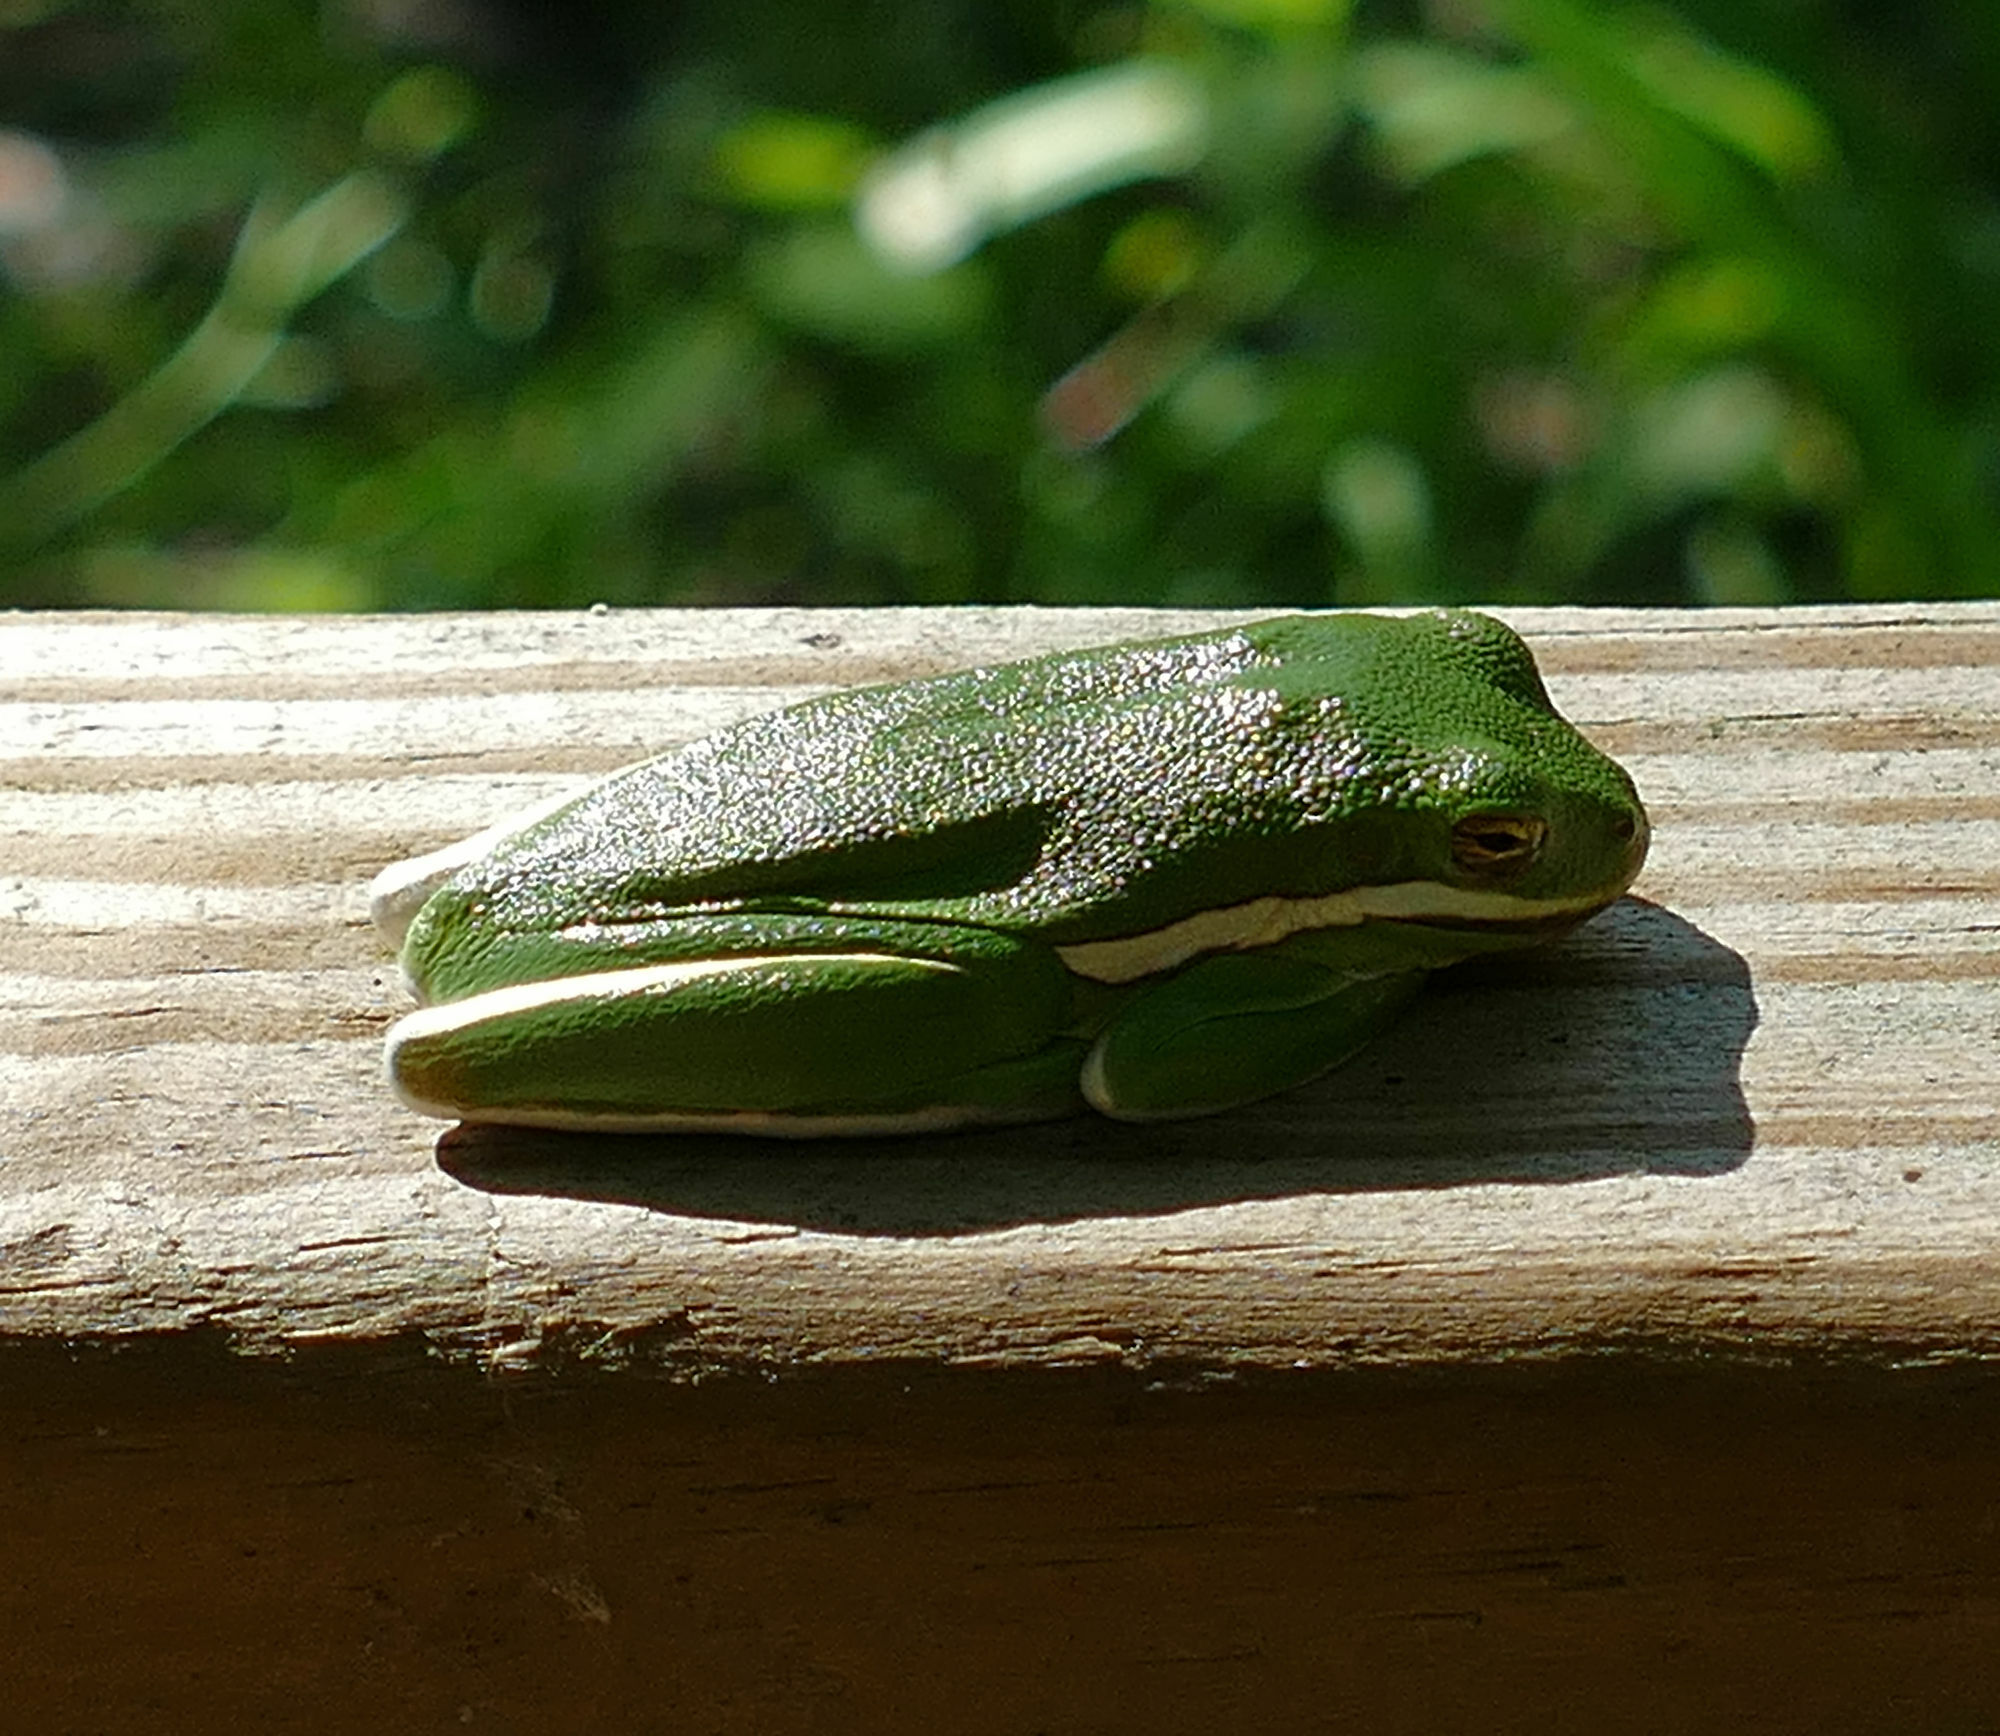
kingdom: Animalia
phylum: Chordata
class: Amphibia
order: Anura
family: Hylidae
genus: Dryophytes
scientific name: Dryophytes cinereus
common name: Green treefrog
